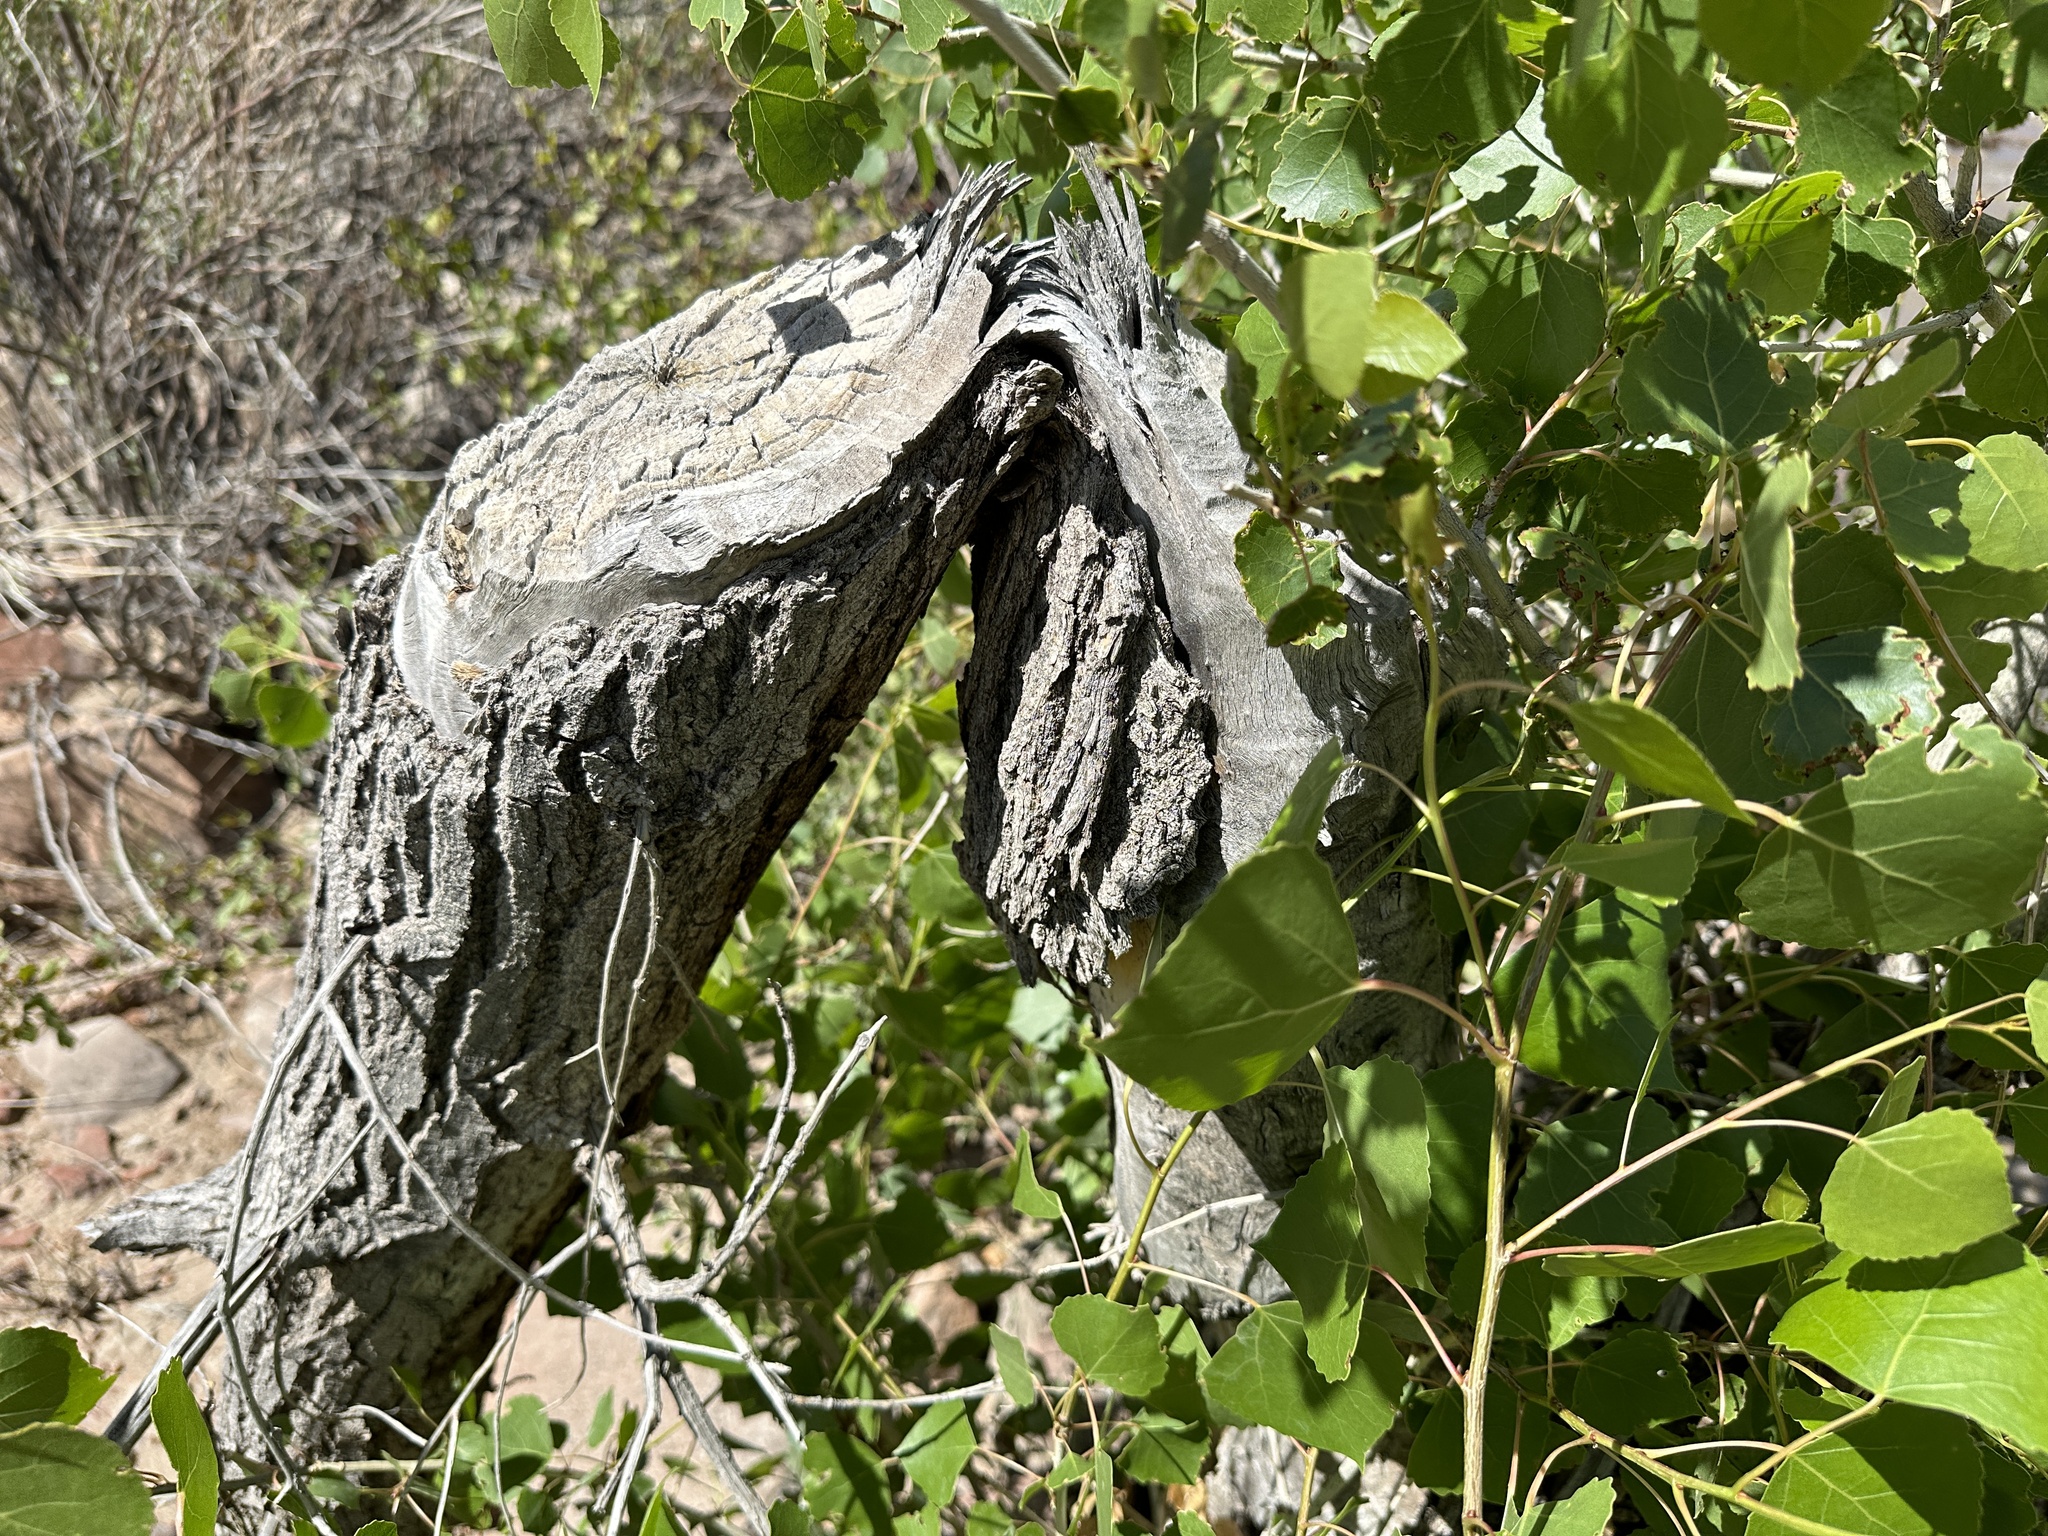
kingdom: Animalia
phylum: Chordata
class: Mammalia
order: Rodentia
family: Castoridae
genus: Castor
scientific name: Castor canadensis
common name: American beaver
